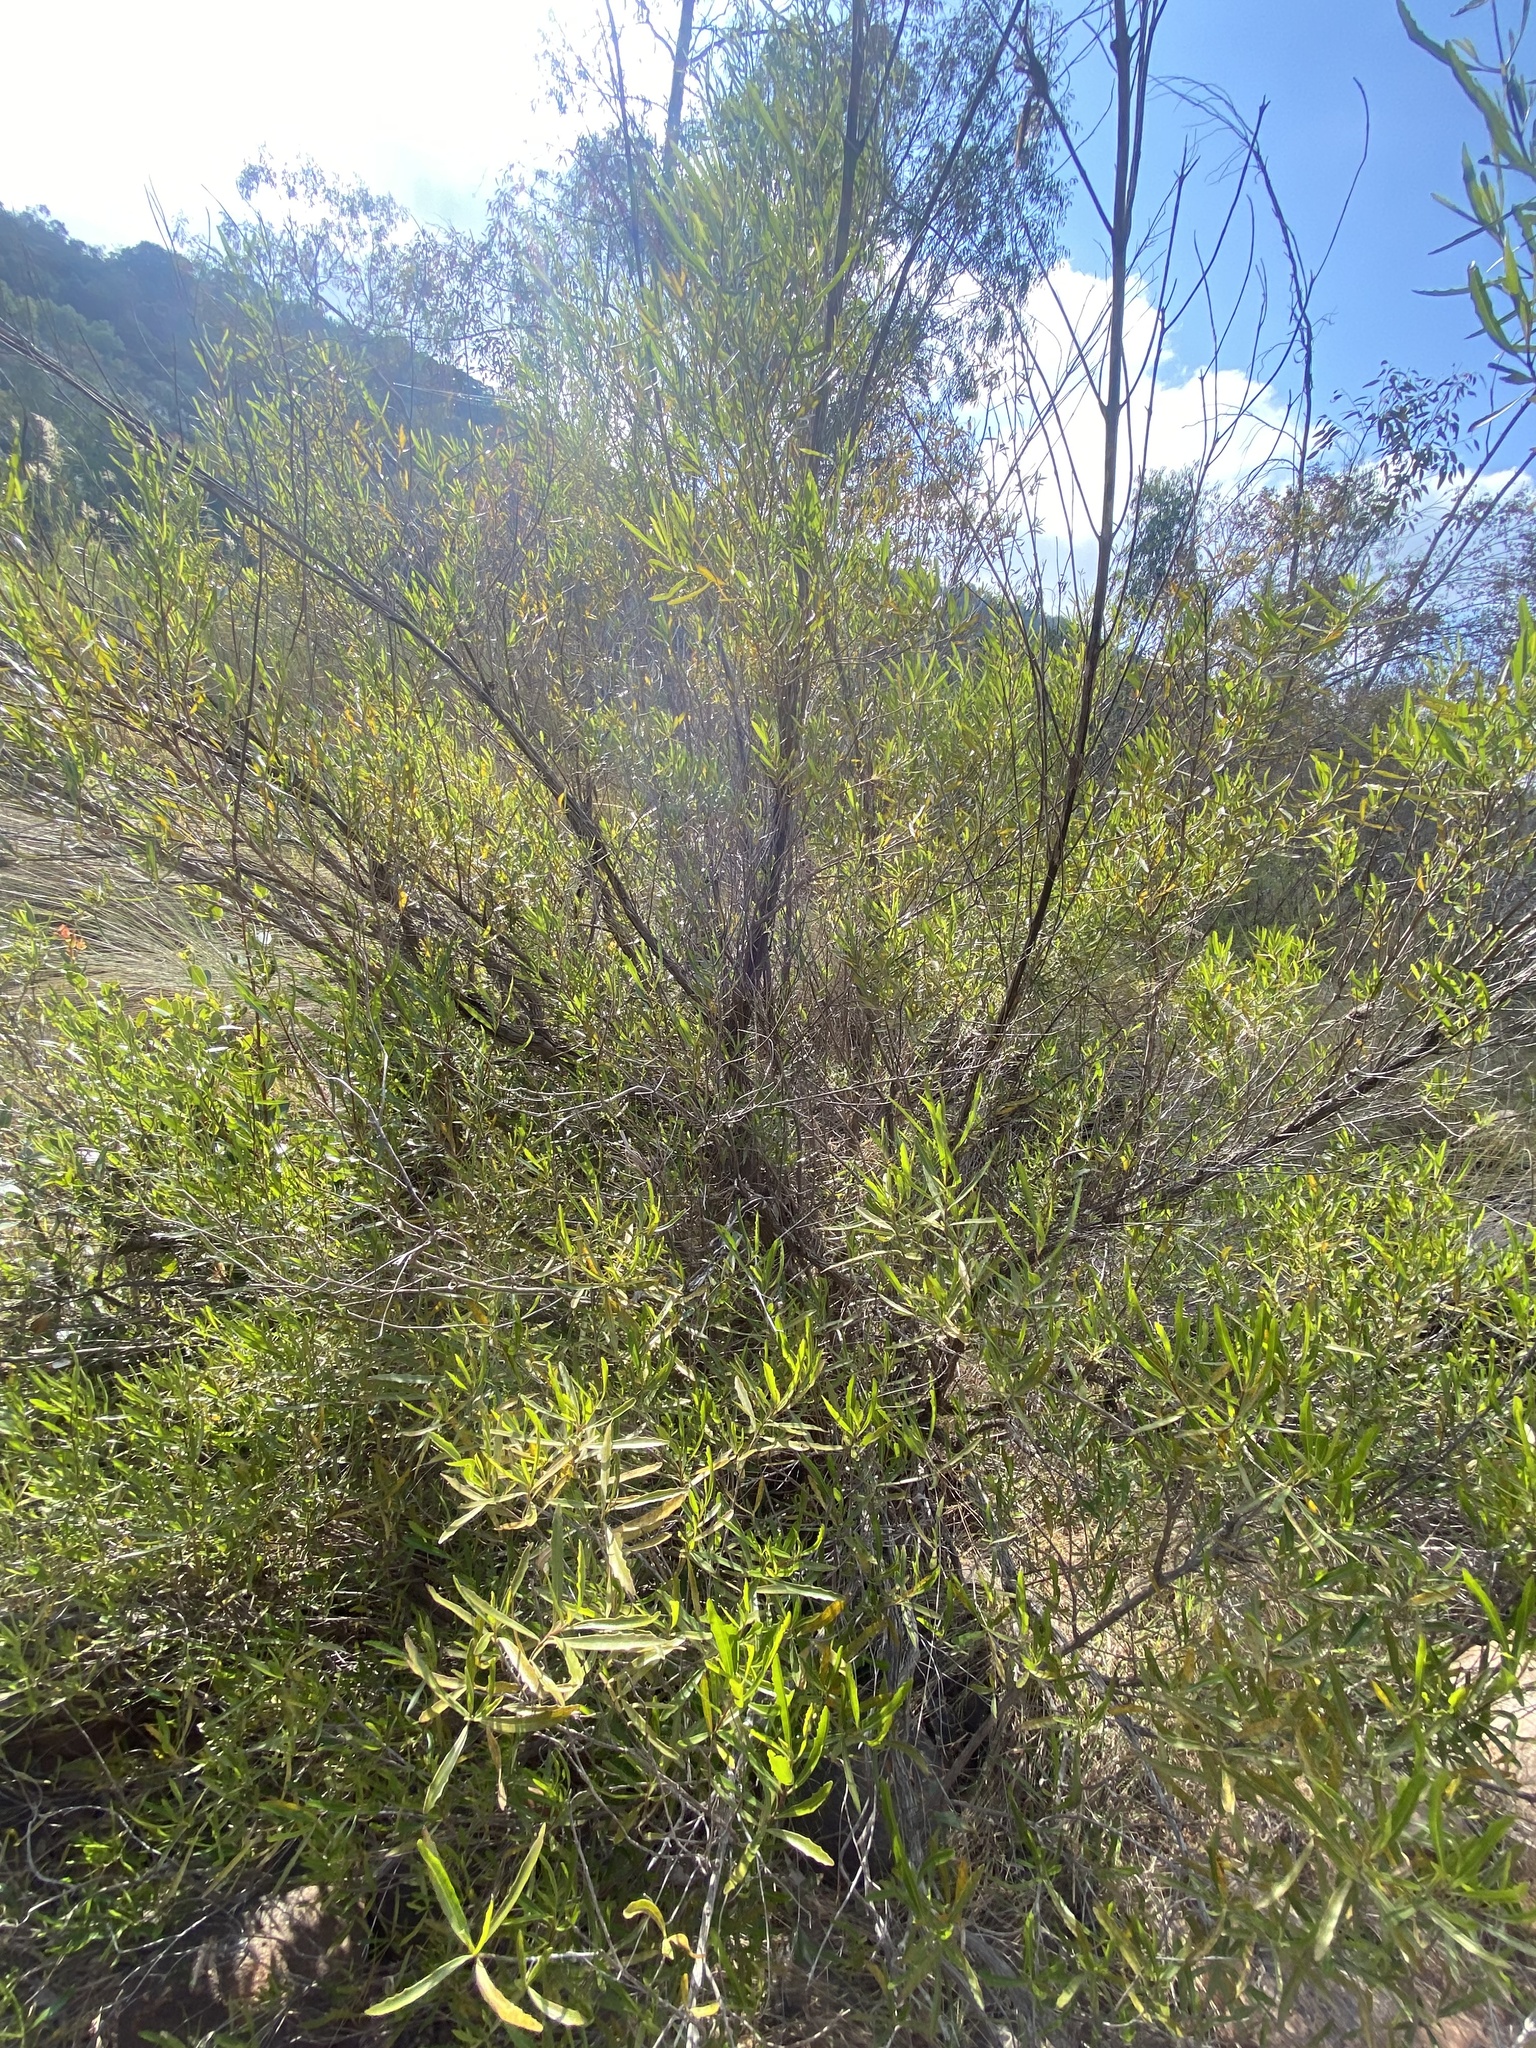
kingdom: Plantae
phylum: Tracheophyta
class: Magnoliopsida
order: Sapindales
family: Sapindaceae
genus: Dodonaea
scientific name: Dodonaea viscosa
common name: Hopbush
